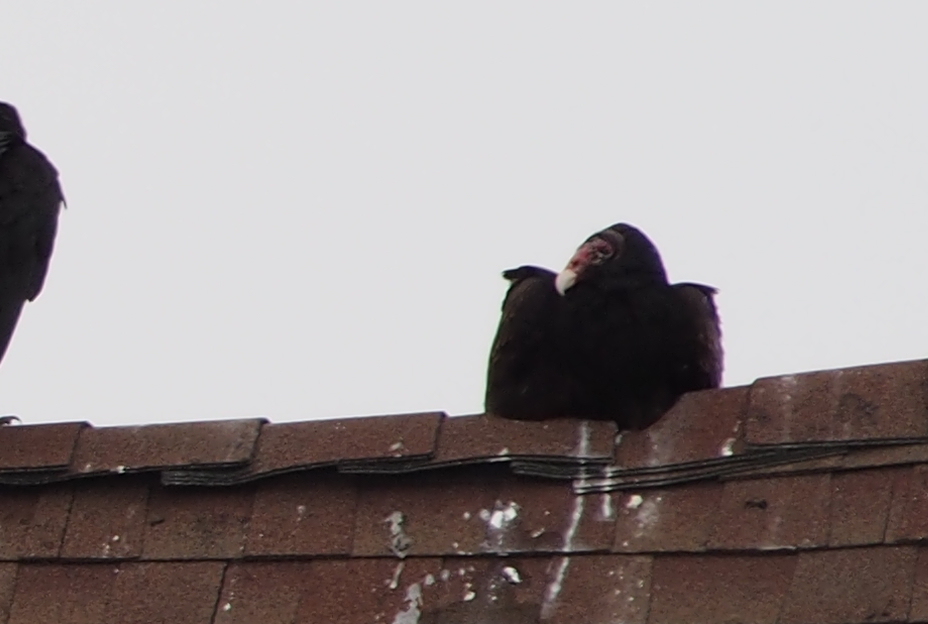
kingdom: Animalia
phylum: Chordata
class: Aves
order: Accipitriformes
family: Cathartidae
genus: Cathartes
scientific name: Cathartes aura
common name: Turkey vulture
